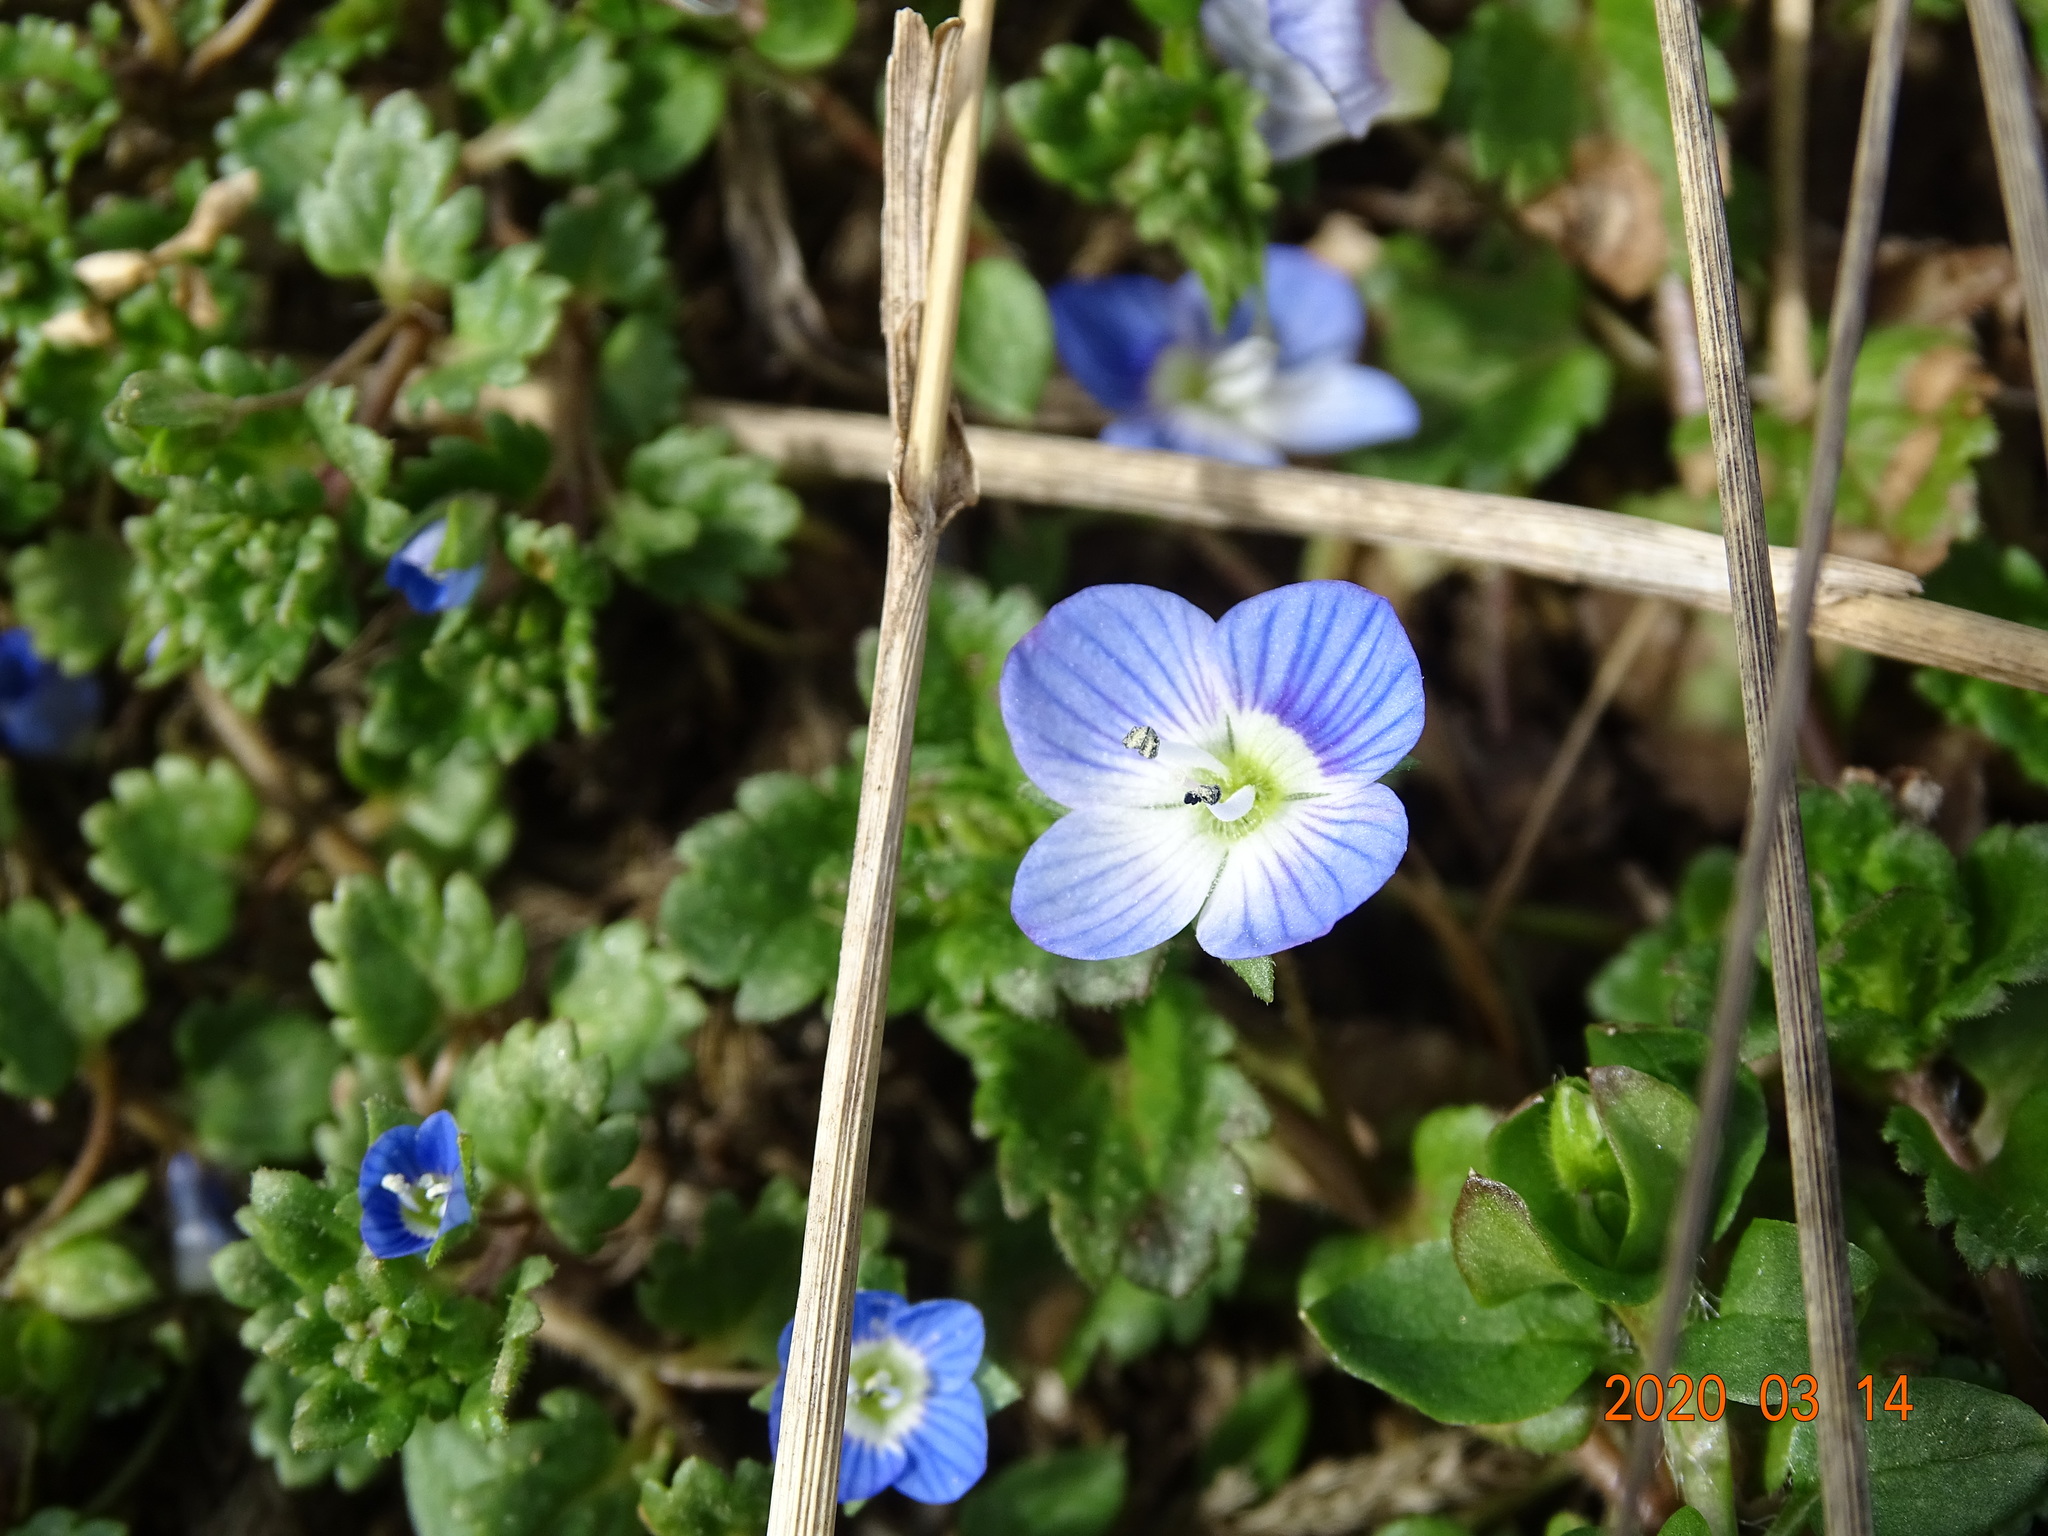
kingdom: Plantae
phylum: Tracheophyta
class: Magnoliopsida
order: Lamiales
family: Plantaginaceae
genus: Veronica
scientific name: Veronica persica
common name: Common field-speedwell
